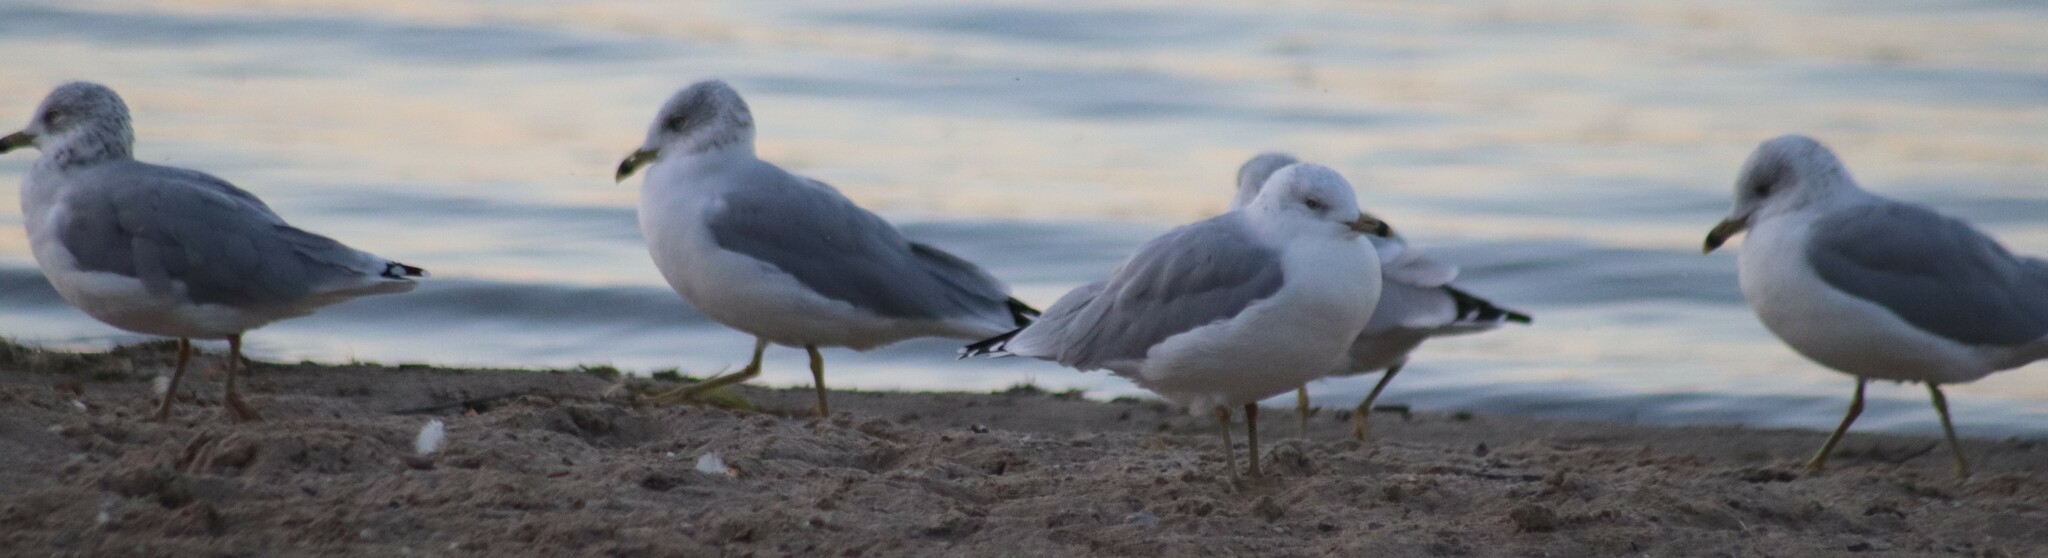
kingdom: Animalia
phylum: Chordata
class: Aves
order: Charadriiformes
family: Laridae
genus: Larus
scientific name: Larus delawarensis
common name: Ring-billed gull
